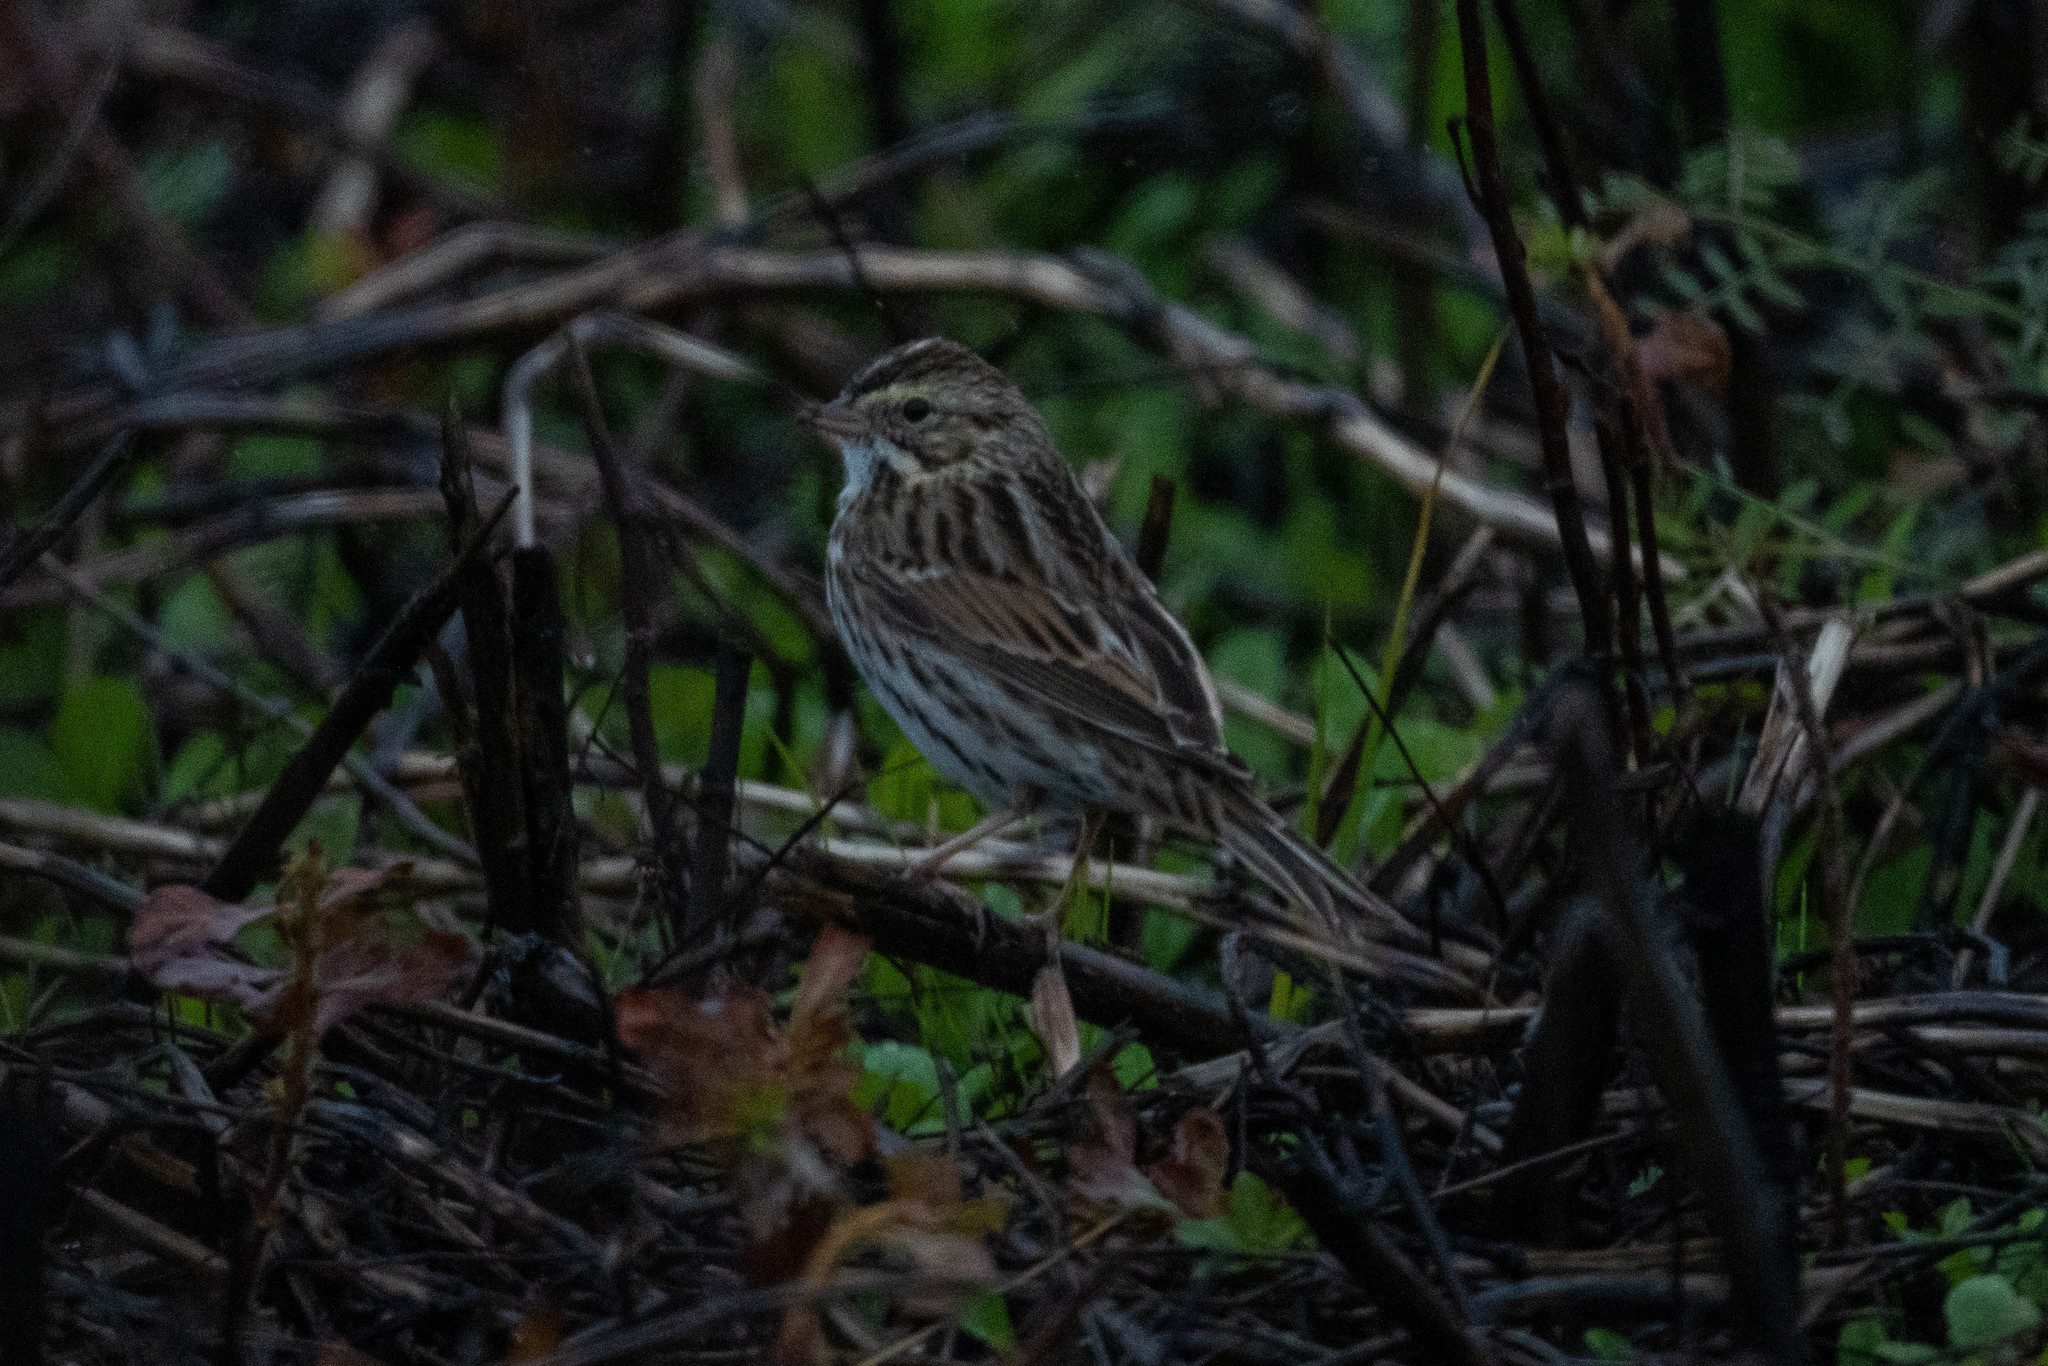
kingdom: Animalia
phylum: Chordata
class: Aves
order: Passeriformes
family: Passerellidae
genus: Passerculus
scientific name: Passerculus sandwichensis
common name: Savannah sparrow
